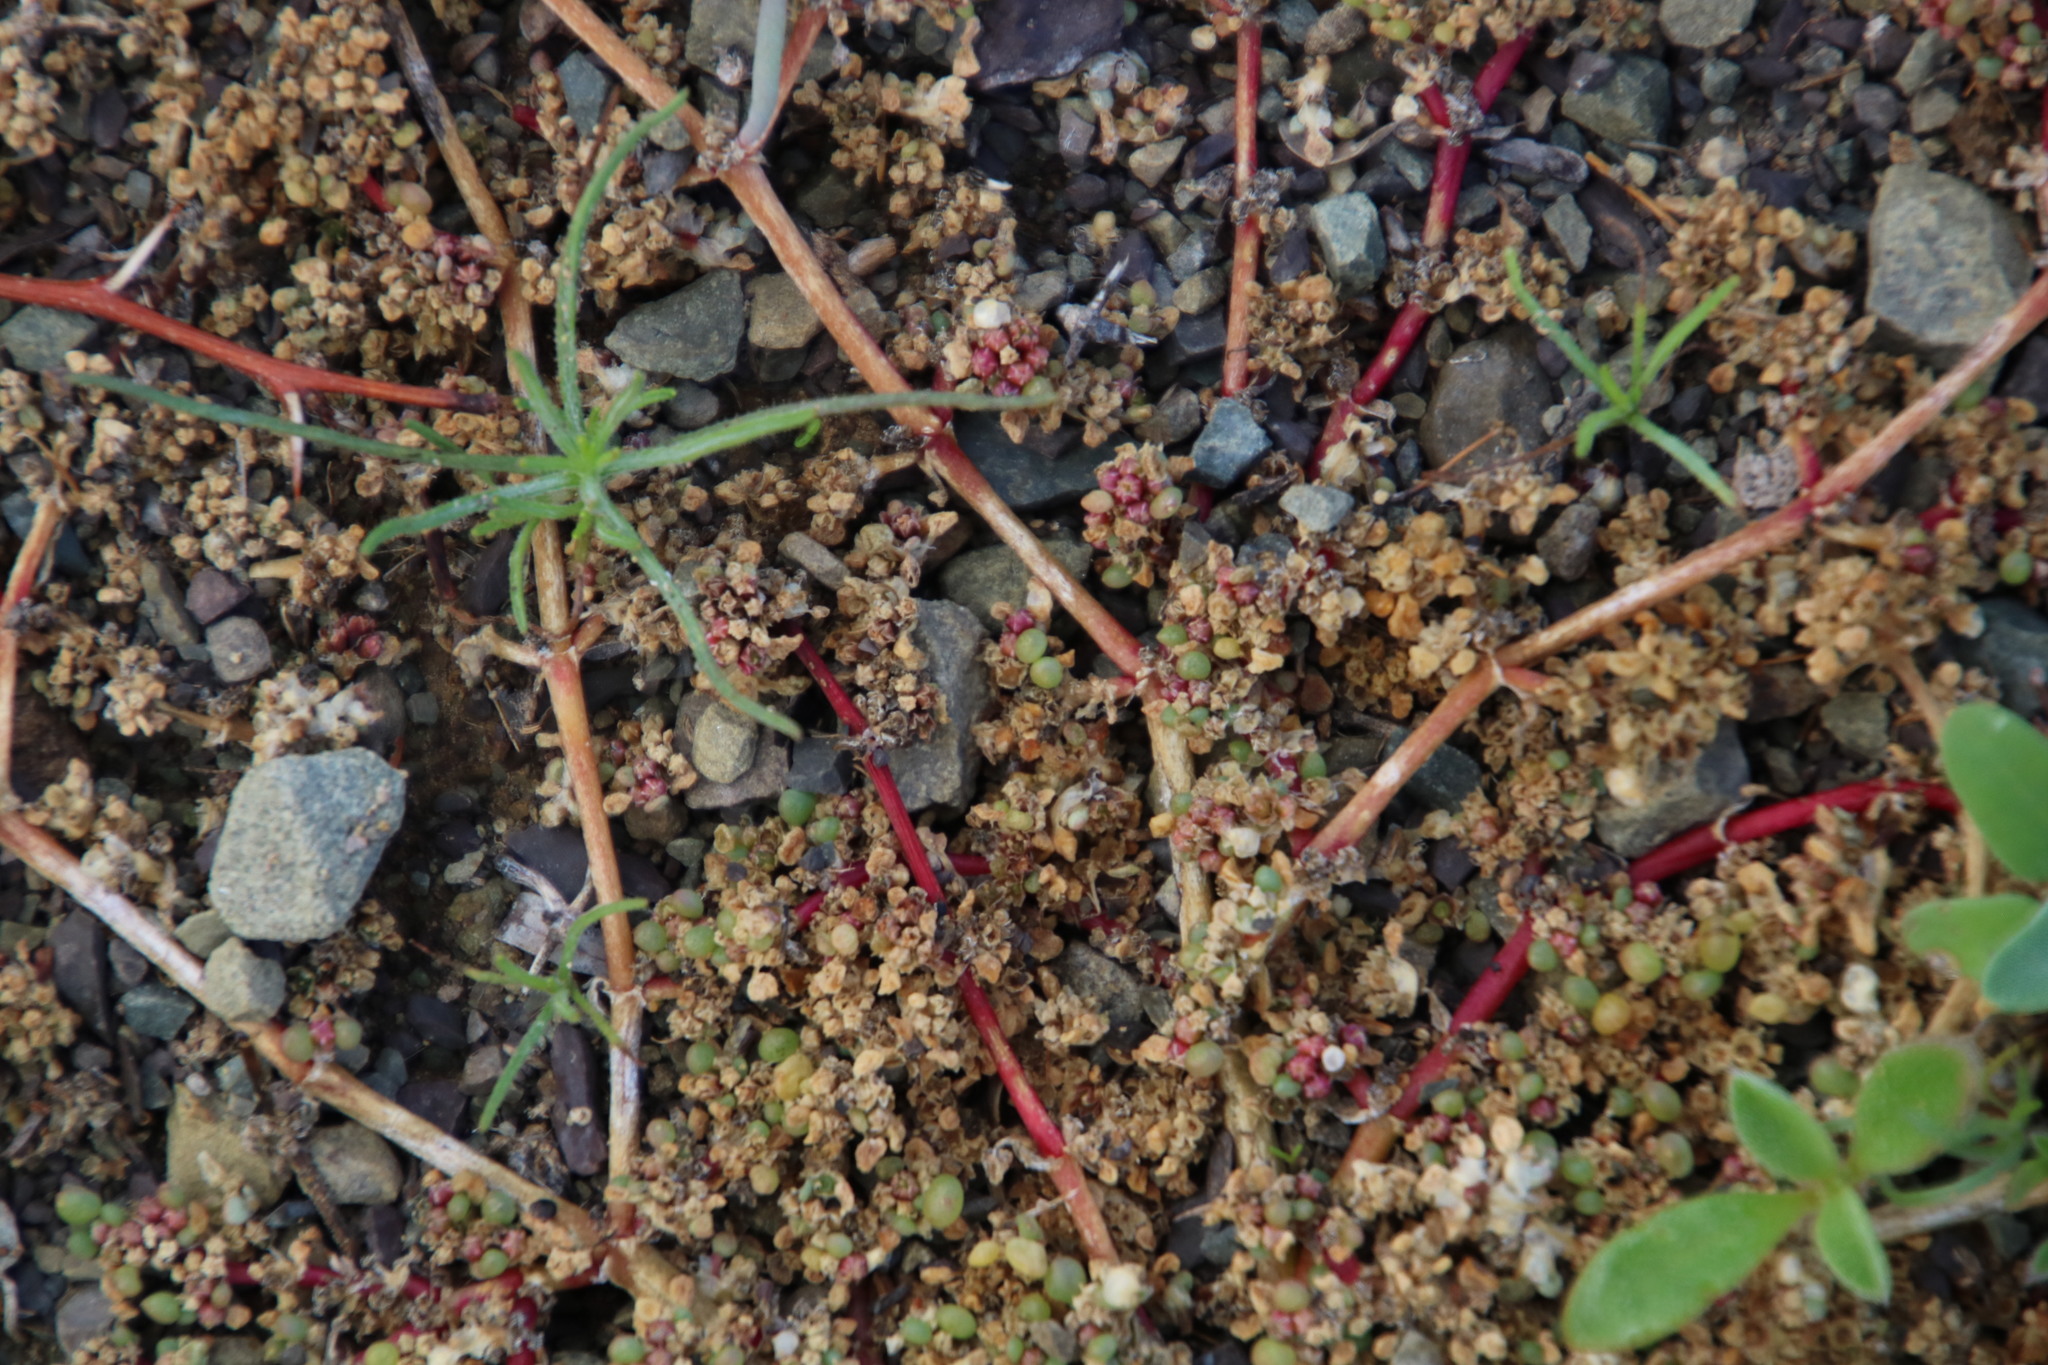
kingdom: Plantae
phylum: Tracheophyta
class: Magnoliopsida
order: Caryophyllales
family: Aizoaceae
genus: Trianthema
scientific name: Trianthema parvifolium
